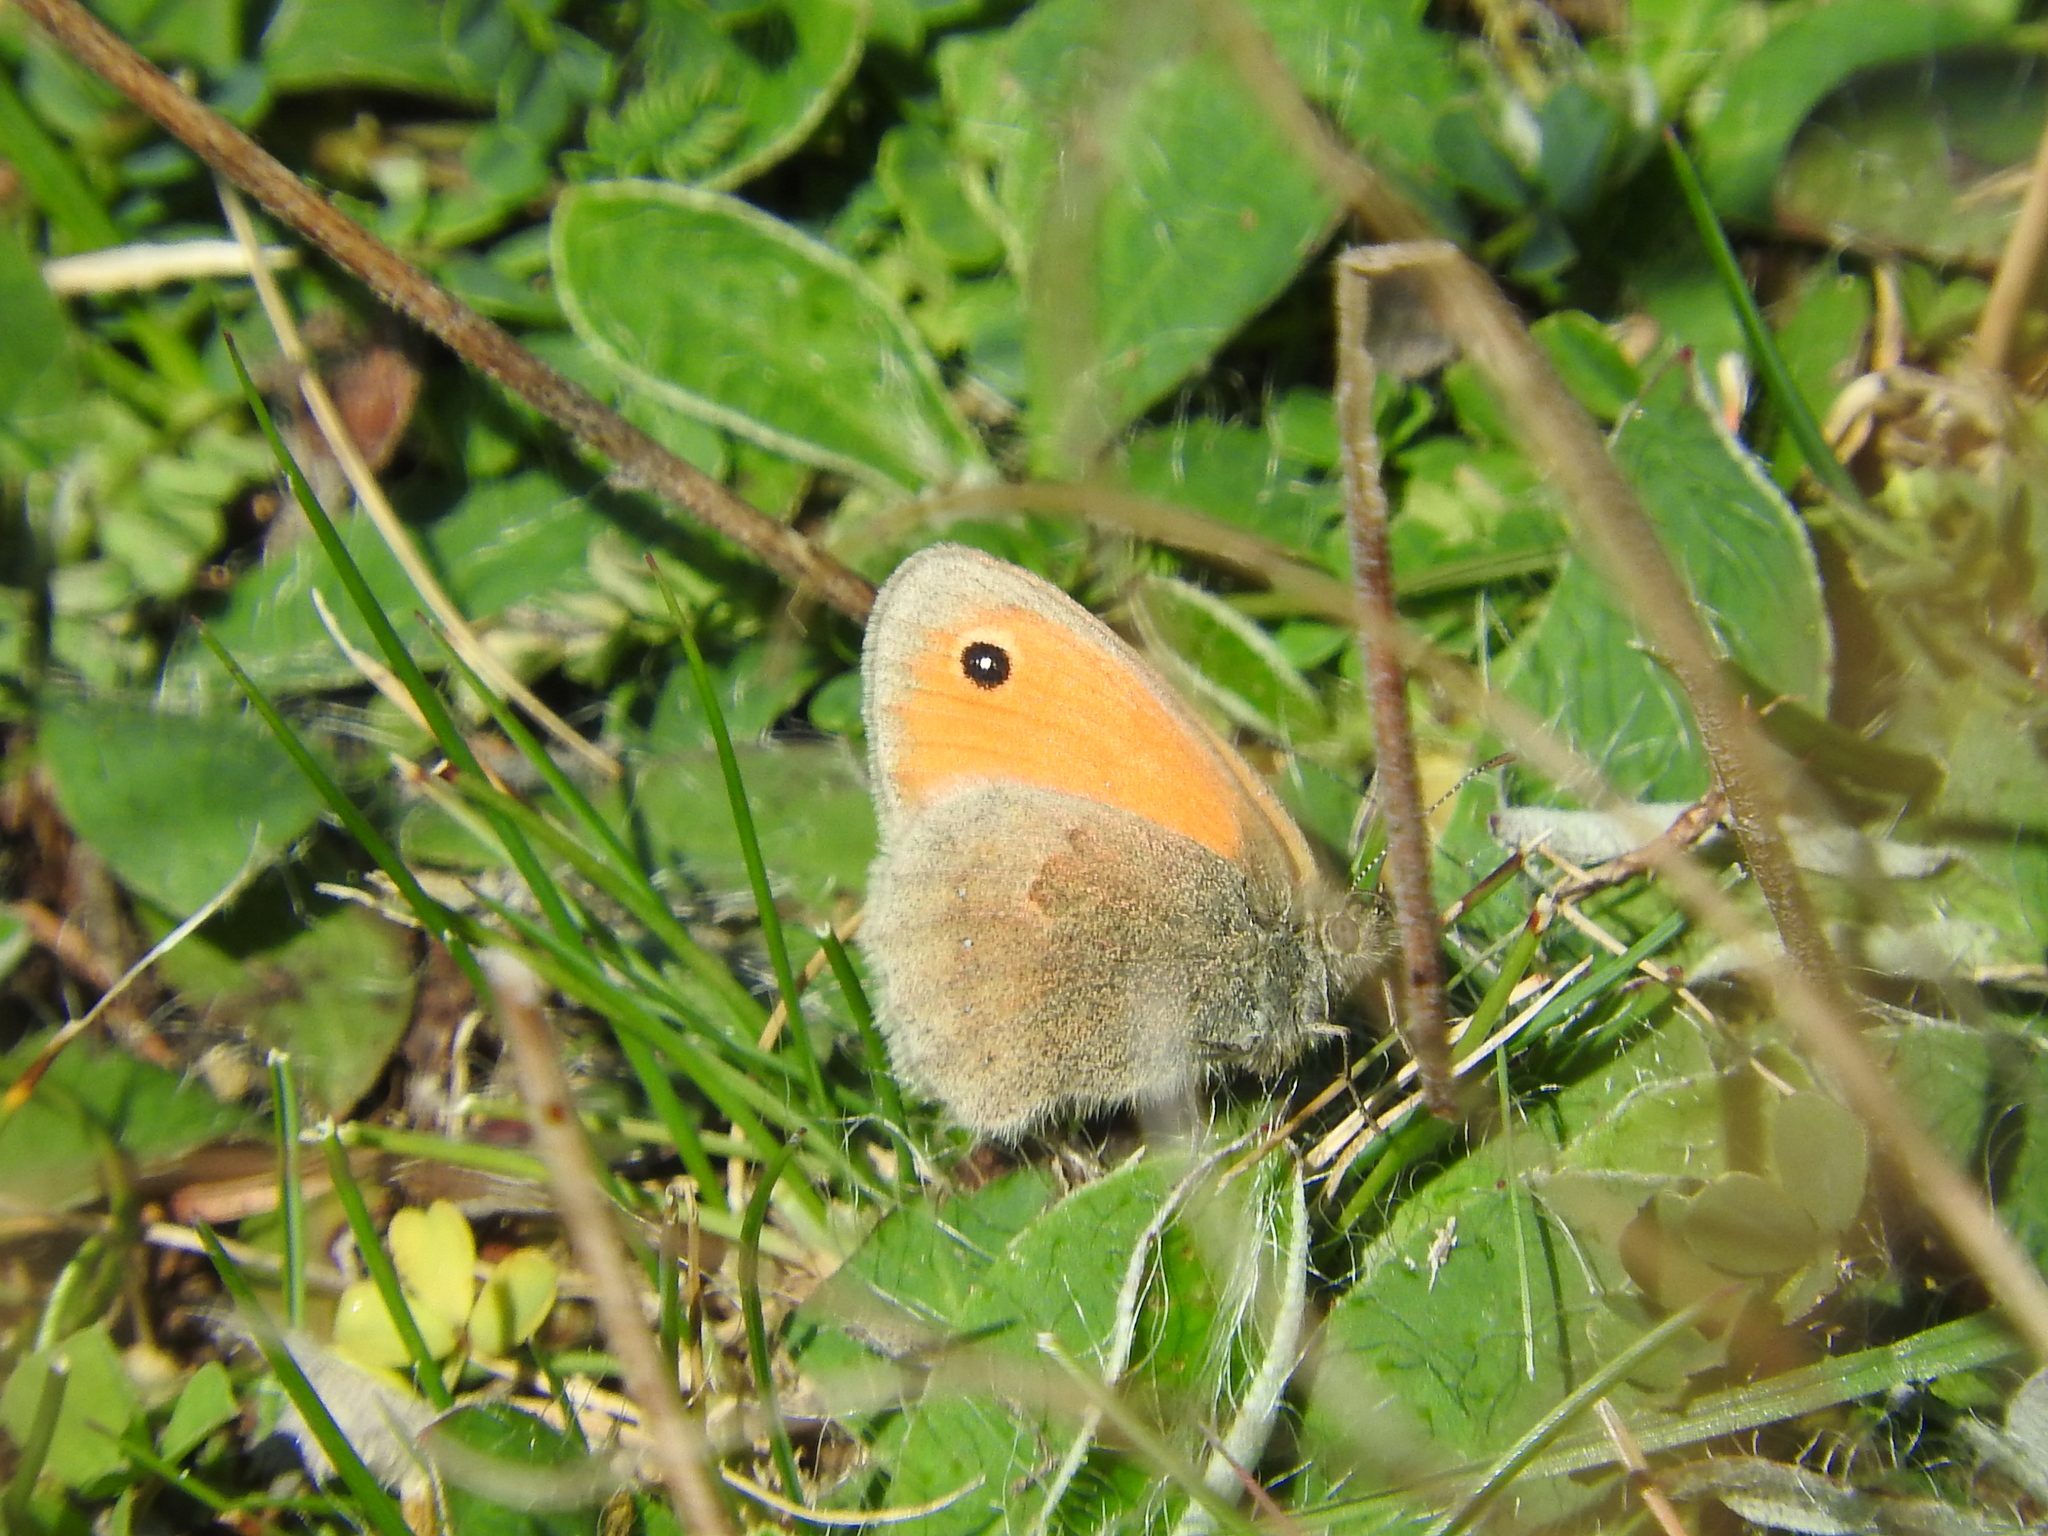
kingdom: Animalia
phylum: Arthropoda
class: Insecta
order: Lepidoptera
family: Nymphalidae
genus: Coenonympha
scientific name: Coenonympha pamphilus
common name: Small heath
